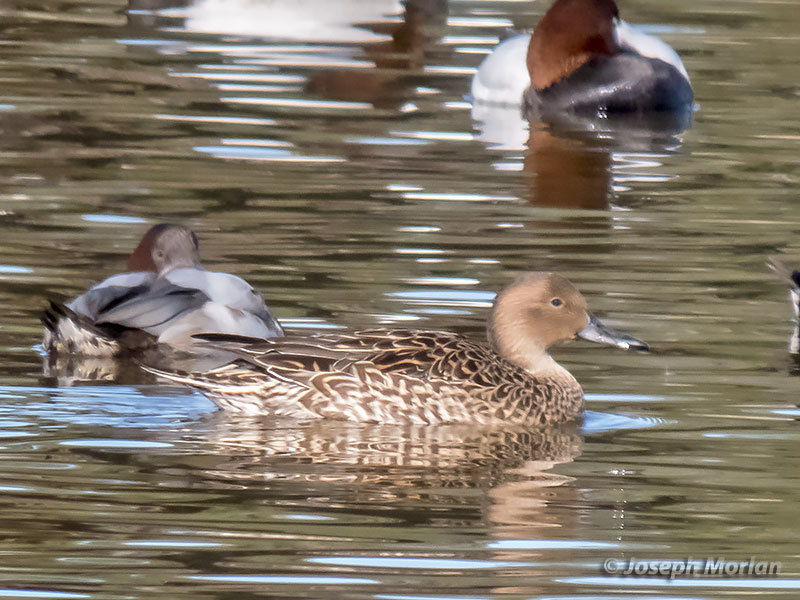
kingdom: Animalia
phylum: Chordata
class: Aves
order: Anseriformes
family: Anatidae
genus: Anas
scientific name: Anas acuta
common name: Northern pintail
